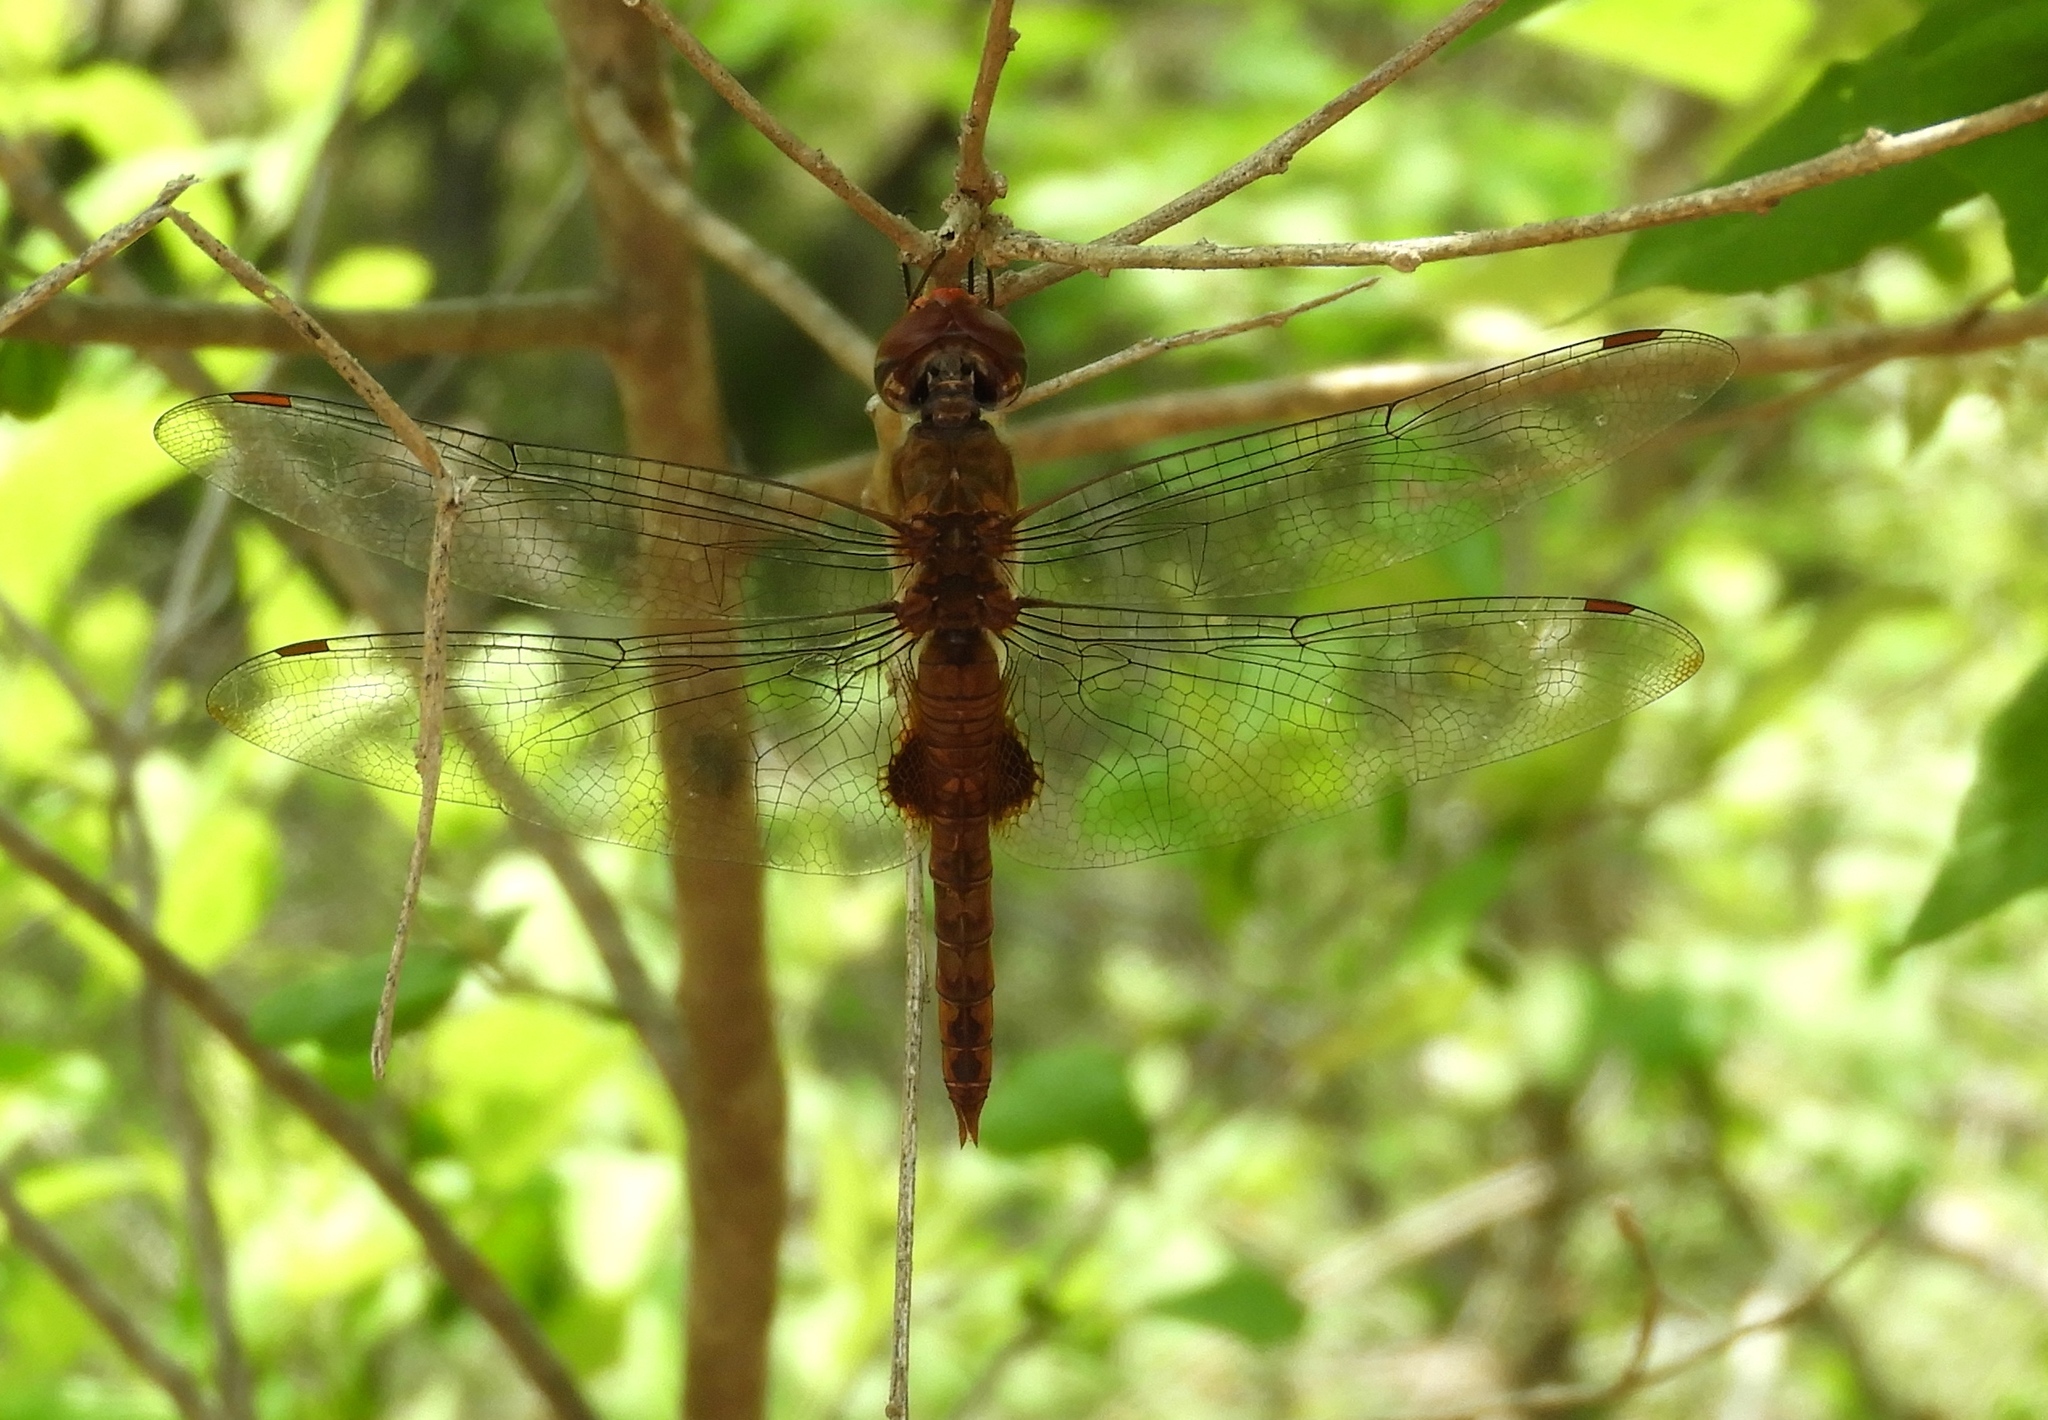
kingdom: Animalia
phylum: Arthropoda
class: Insecta
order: Odonata
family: Libellulidae
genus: Pantala
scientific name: Pantala hymenaea
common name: Spot-winged glider
